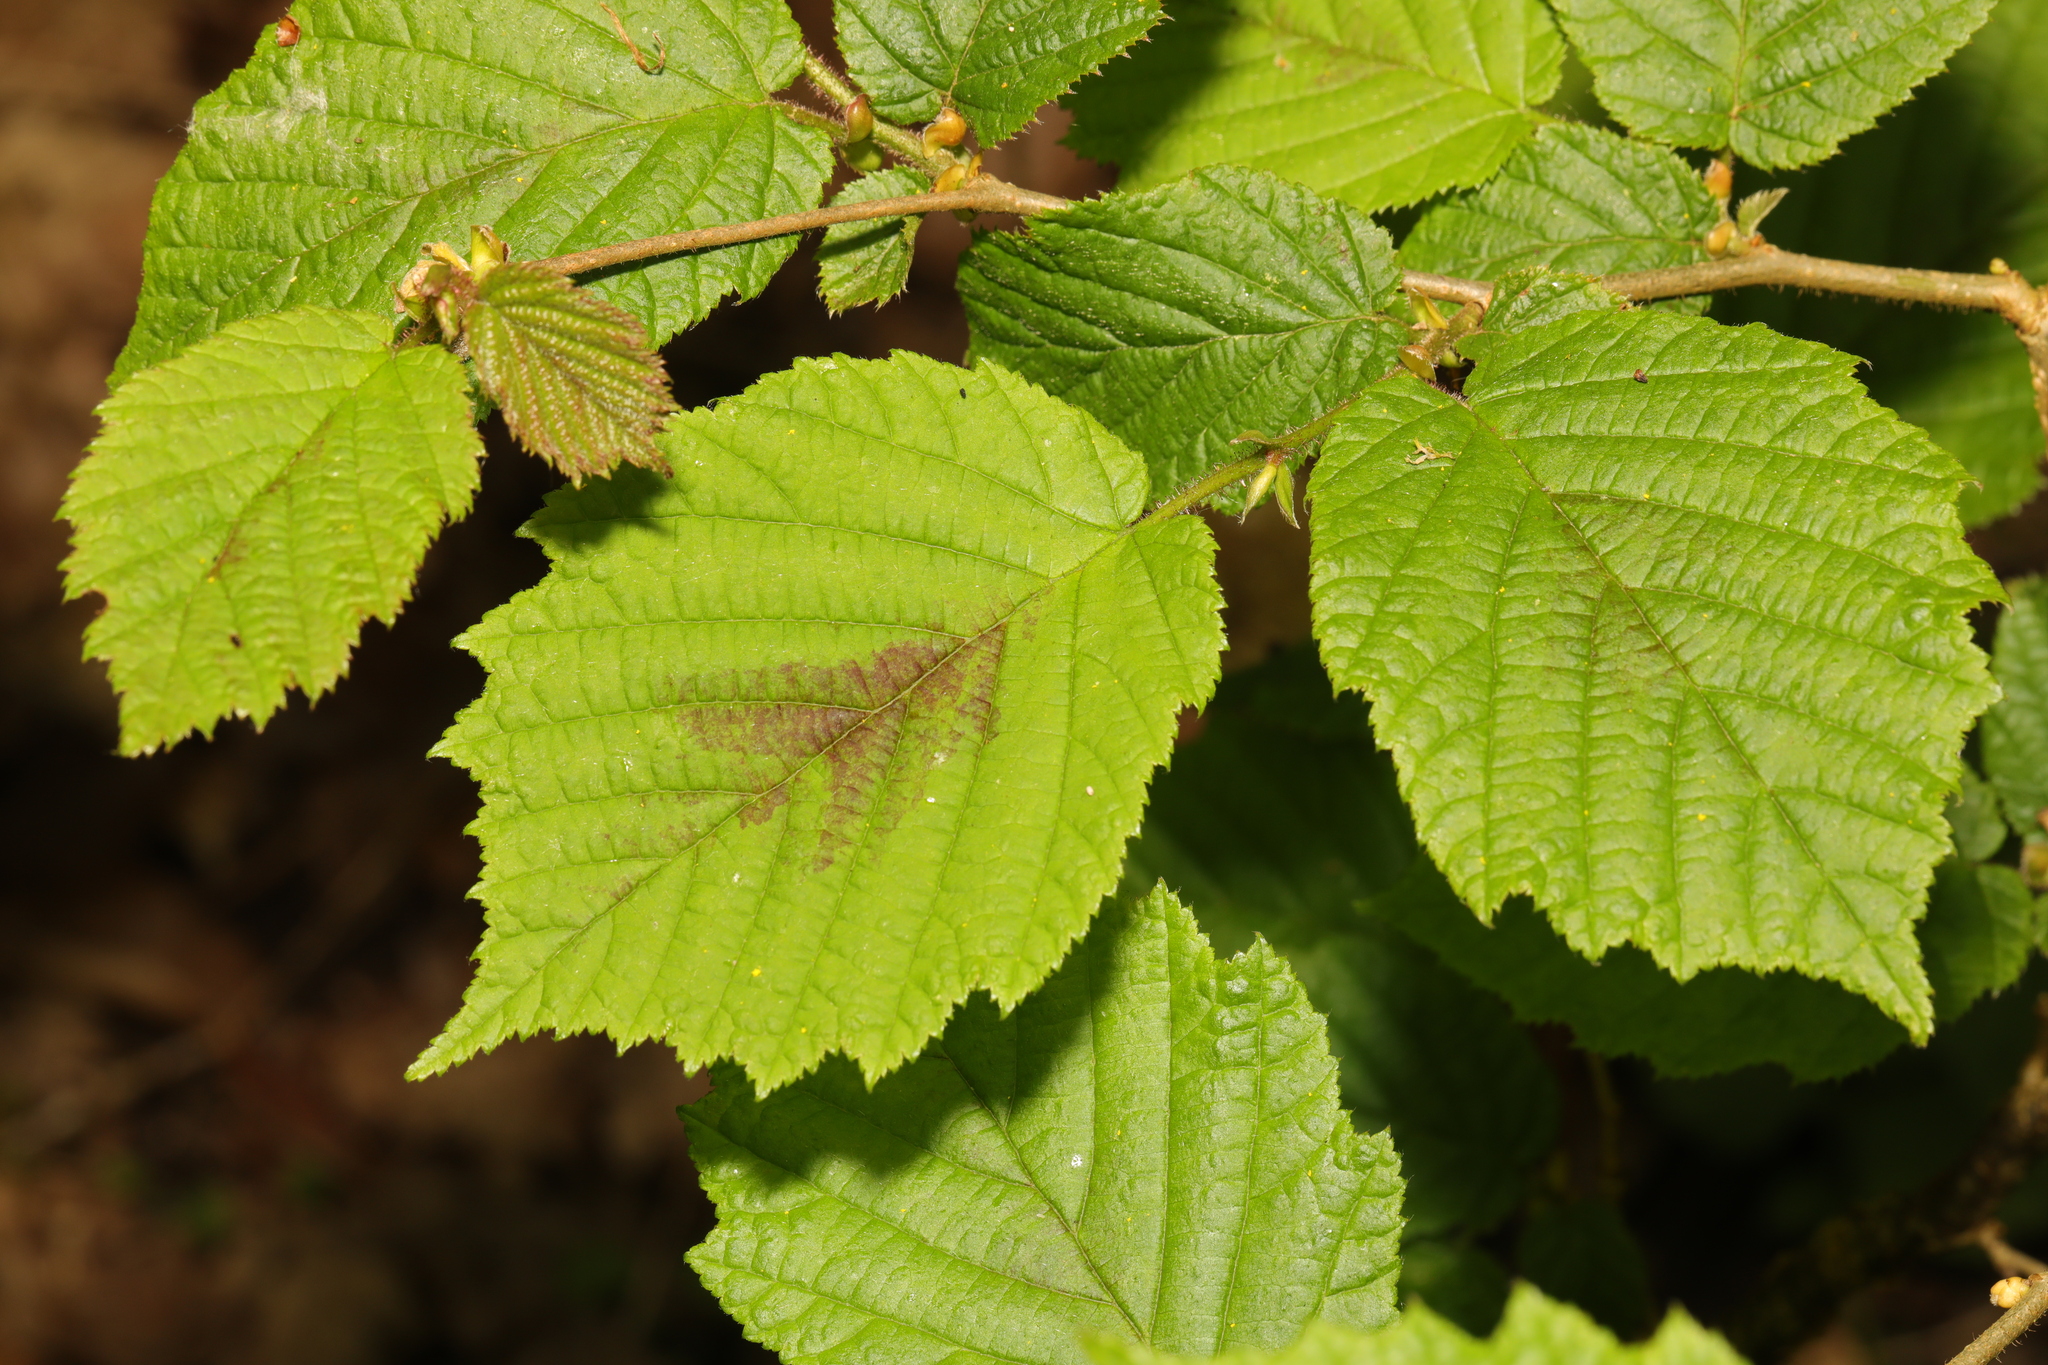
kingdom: Plantae
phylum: Tracheophyta
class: Magnoliopsida
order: Fagales
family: Betulaceae
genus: Corylus
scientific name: Corylus avellana
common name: European hazel
